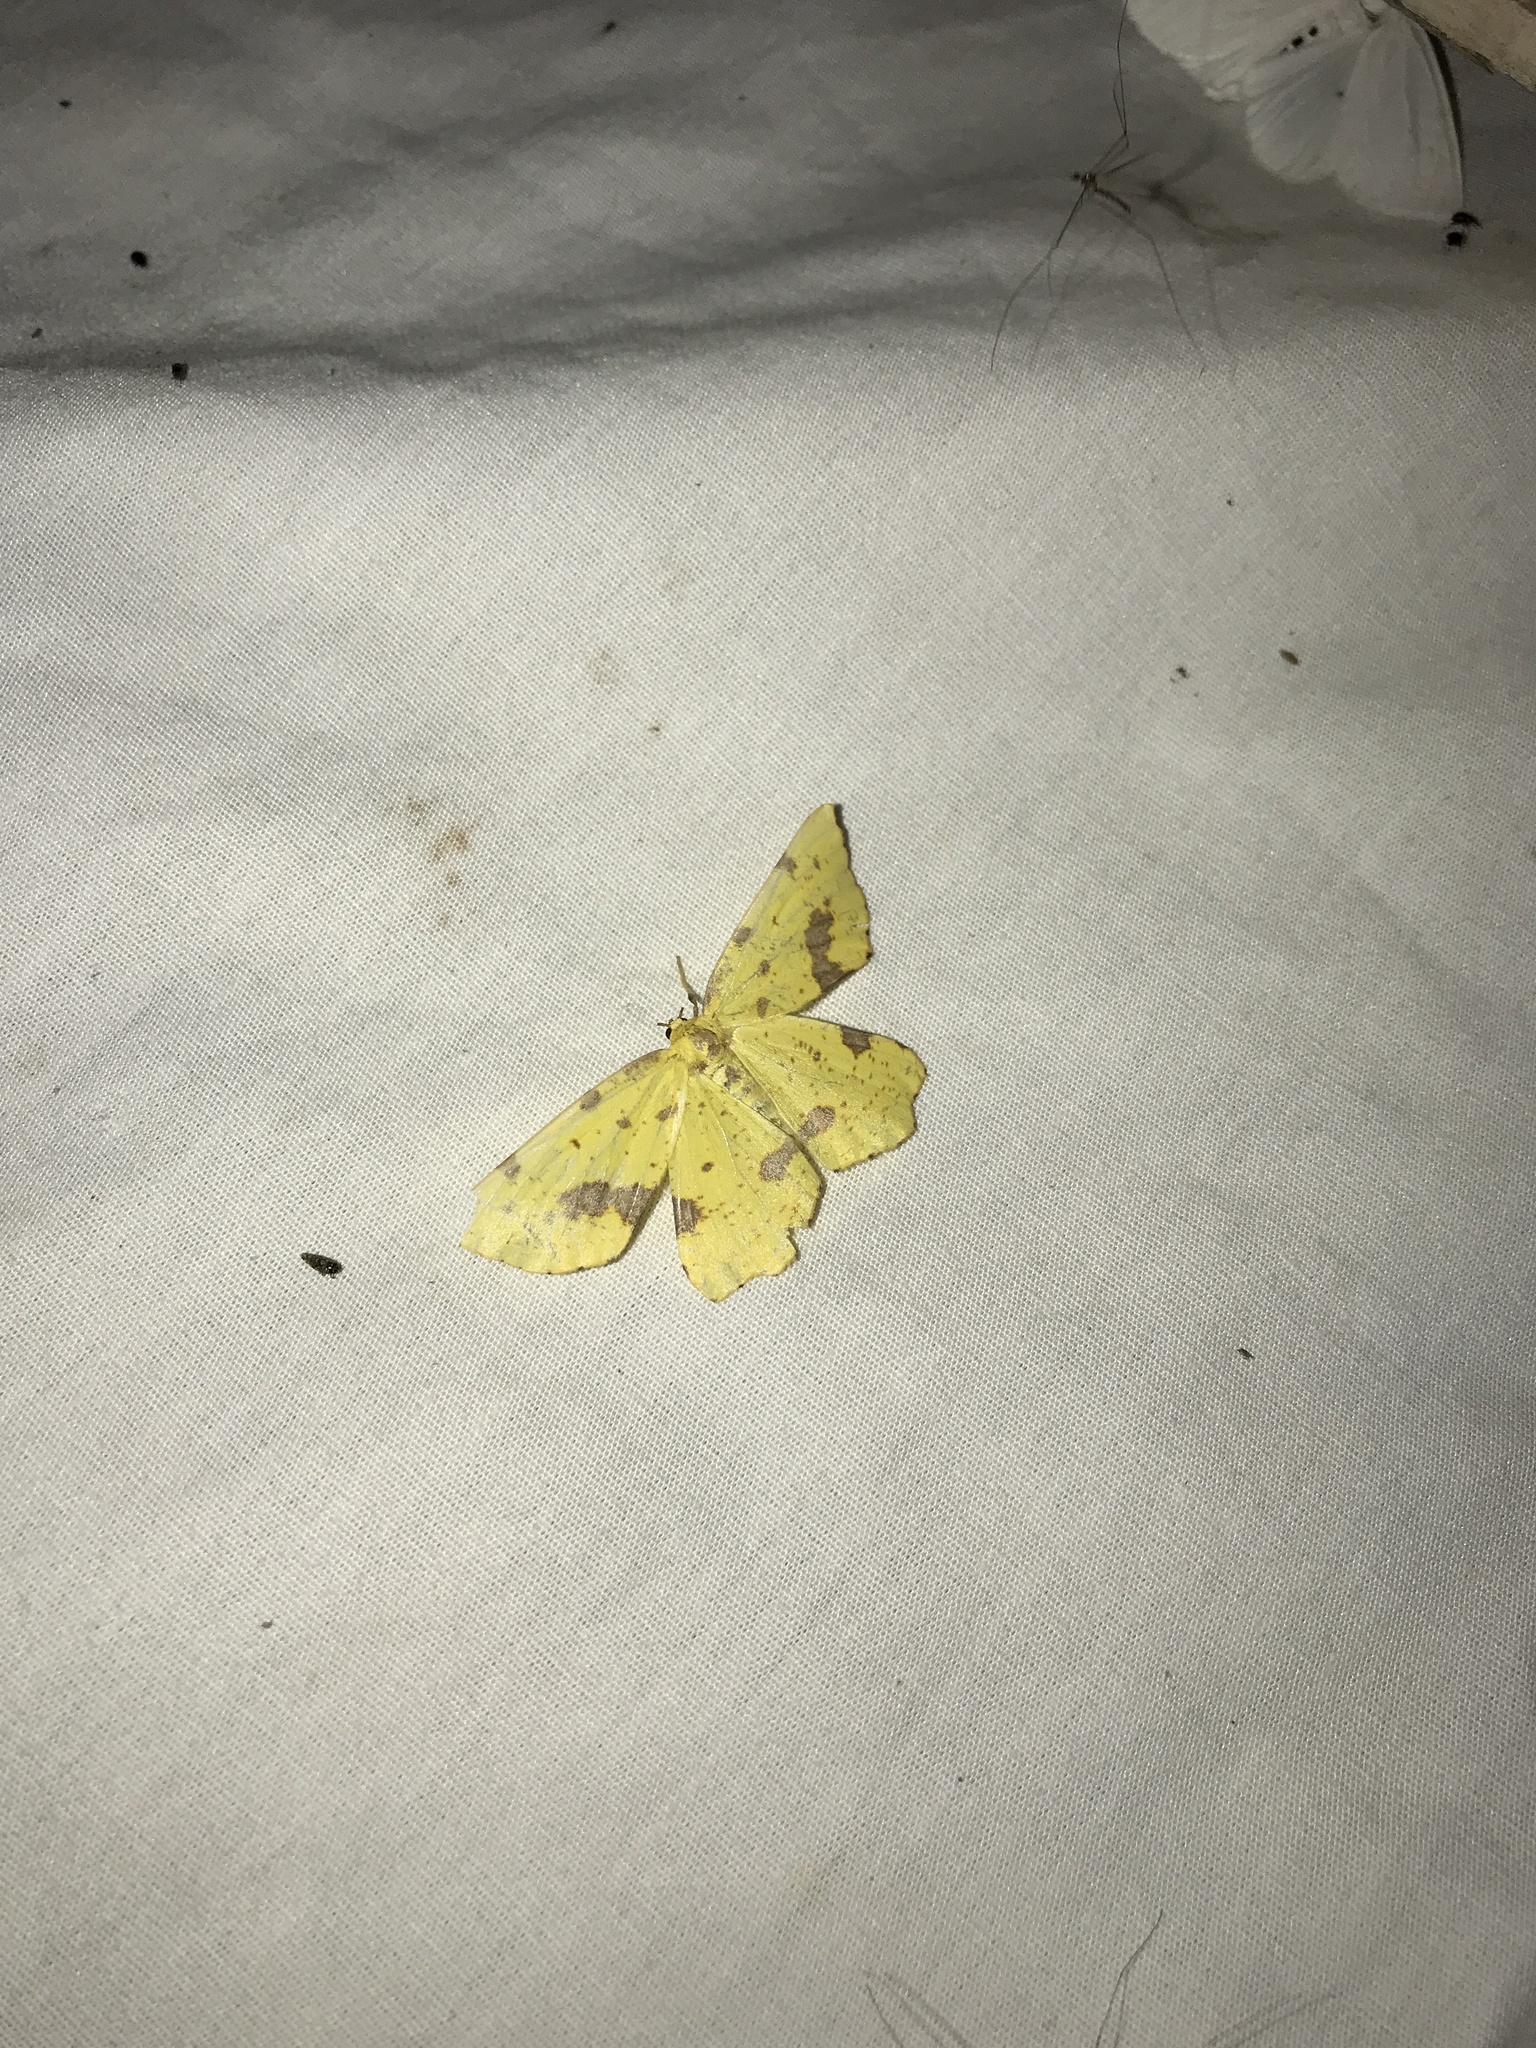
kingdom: Animalia
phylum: Arthropoda
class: Insecta
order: Lepidoptera
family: Geometridae
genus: Xanthotype
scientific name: Xanthotype
